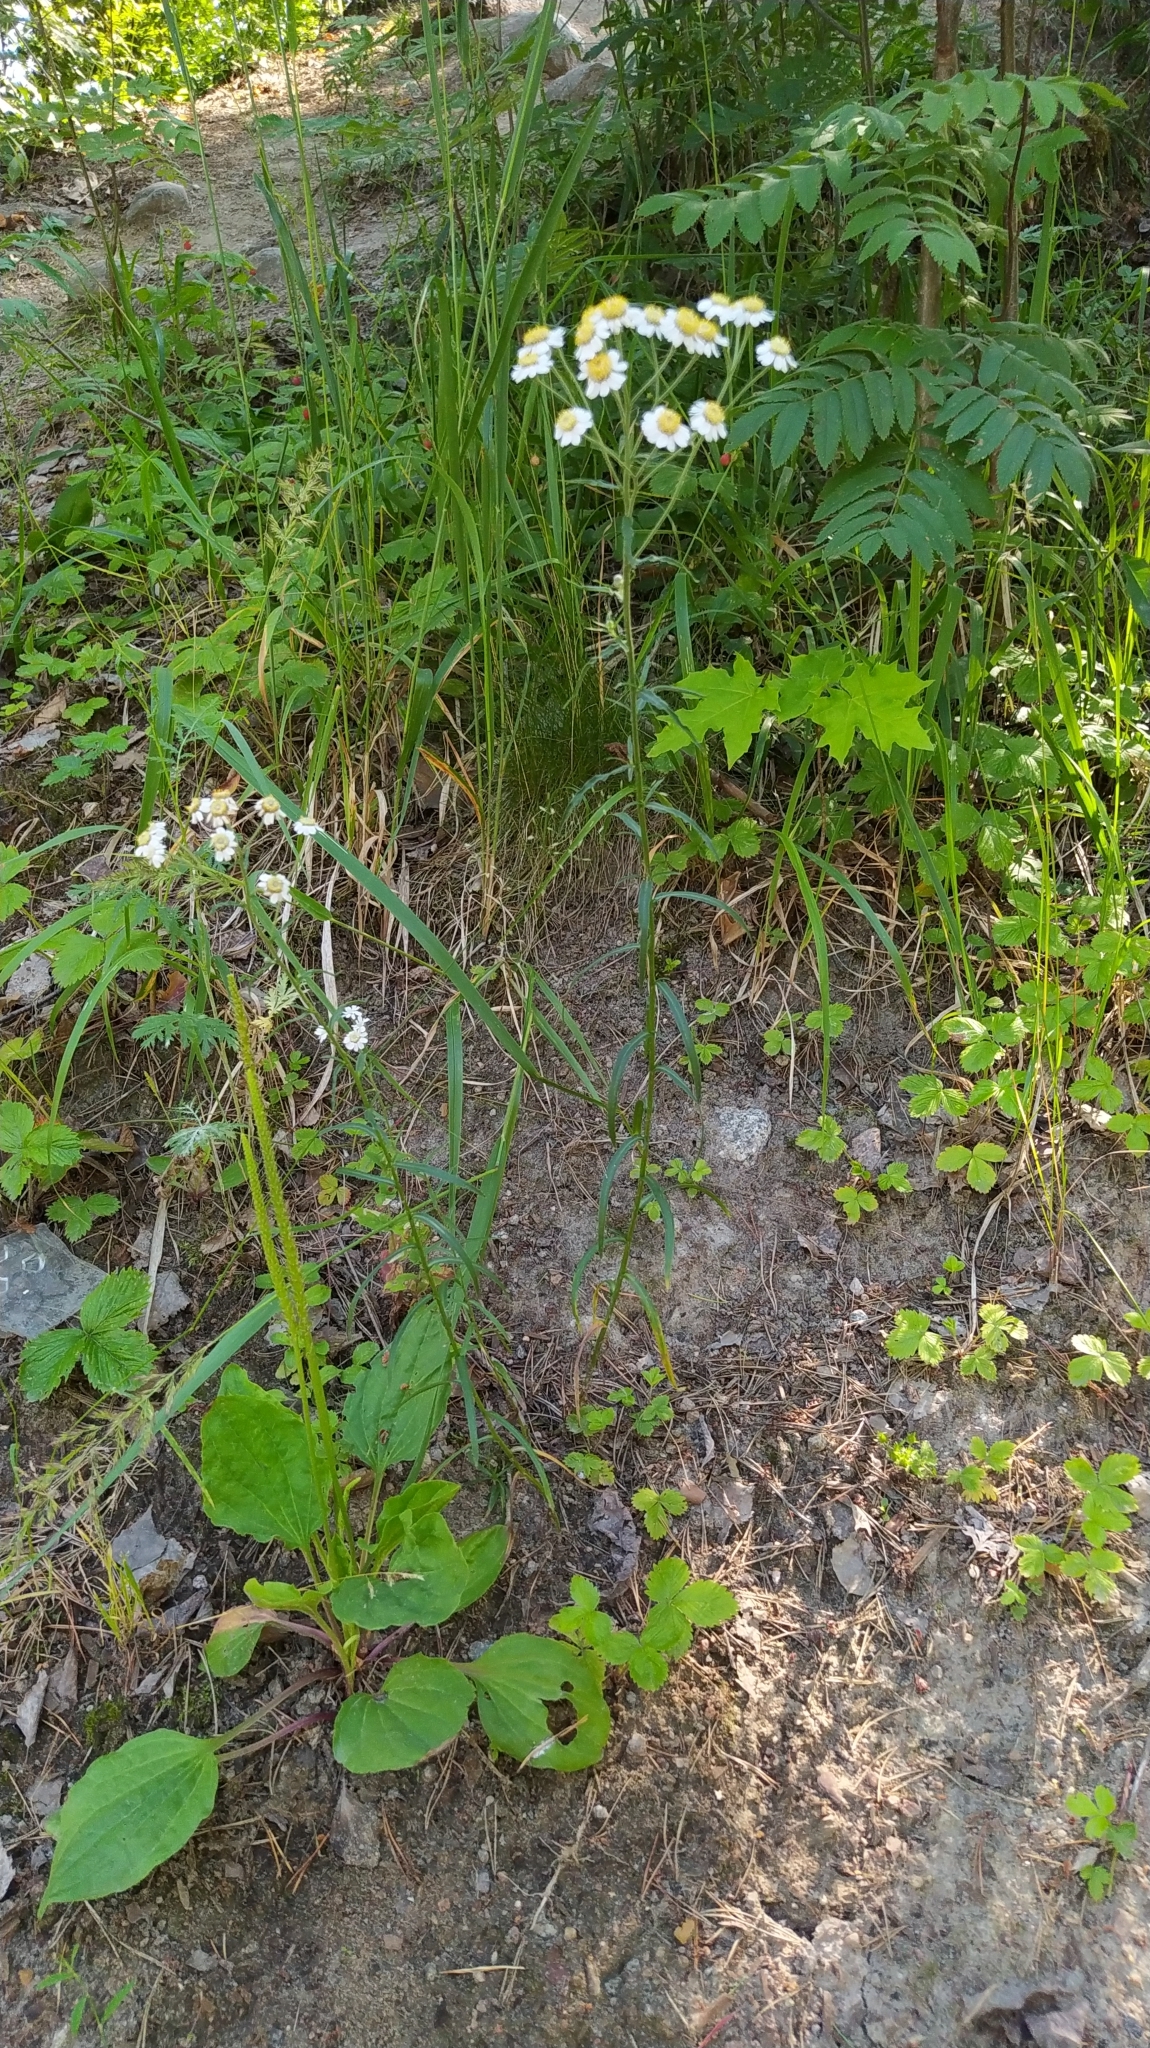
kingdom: Plantae
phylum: Tracheophyta
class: Magnoliopsida
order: Asterales
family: Asteraceae
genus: Achillea
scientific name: Achillea ptarmica
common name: Sneezeweed
